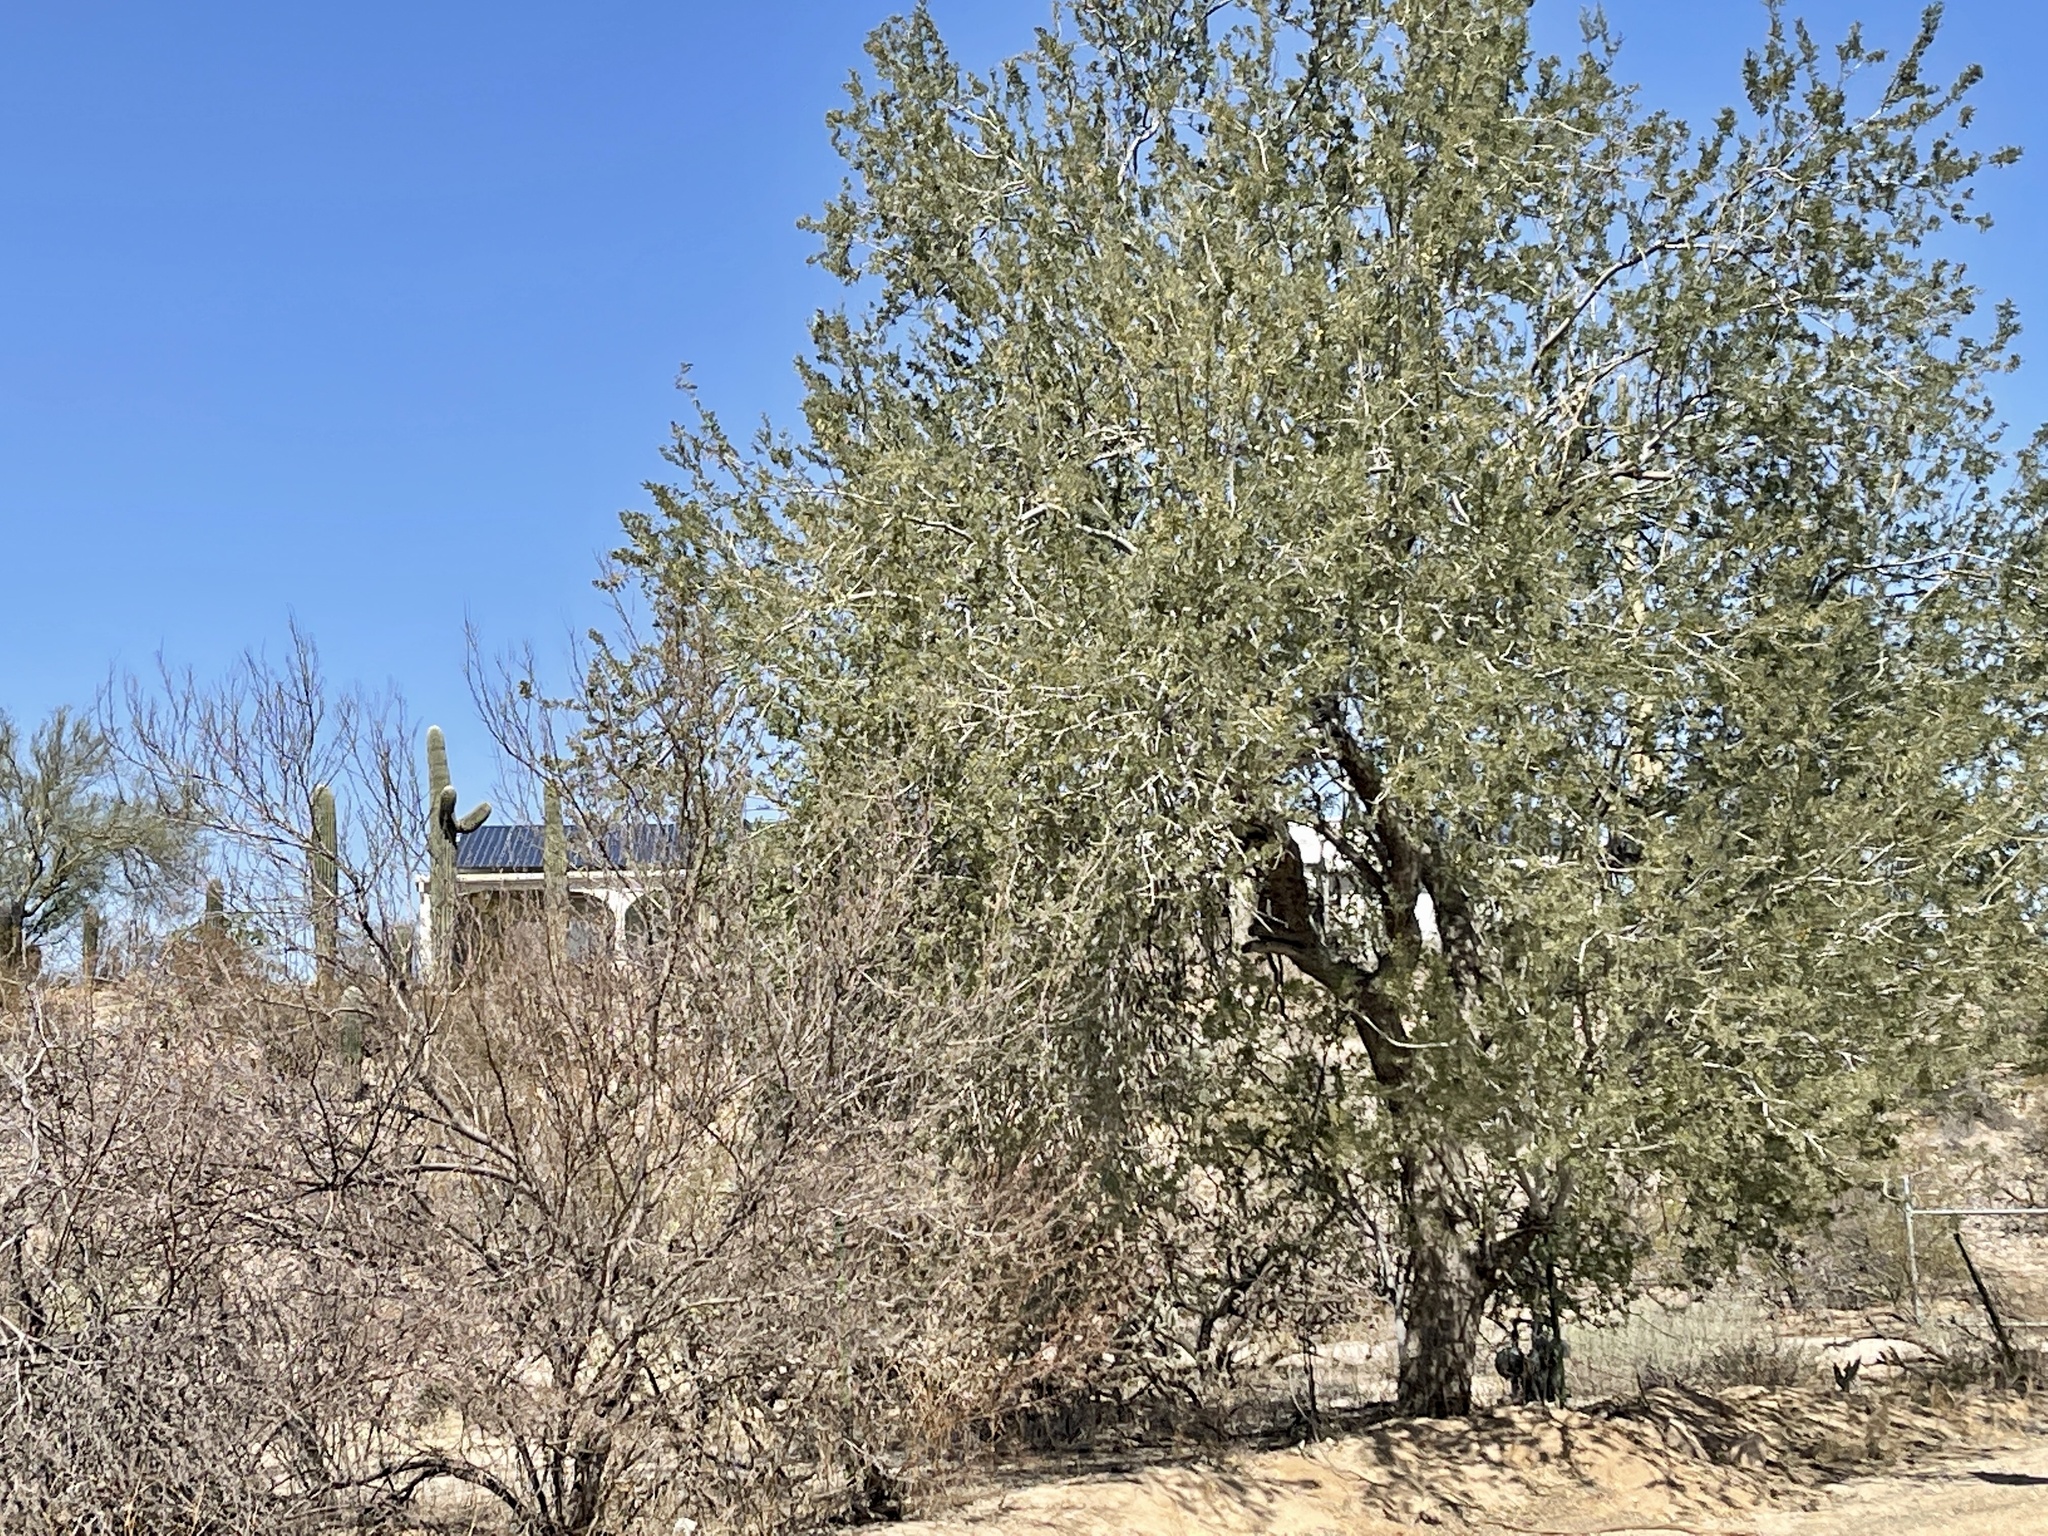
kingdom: Plantae
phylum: Tracheophyta
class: Magnoliopsida
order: Fabales
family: Fabaceae
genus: Olneya
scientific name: Olneya tesota
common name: Desert ironwood
